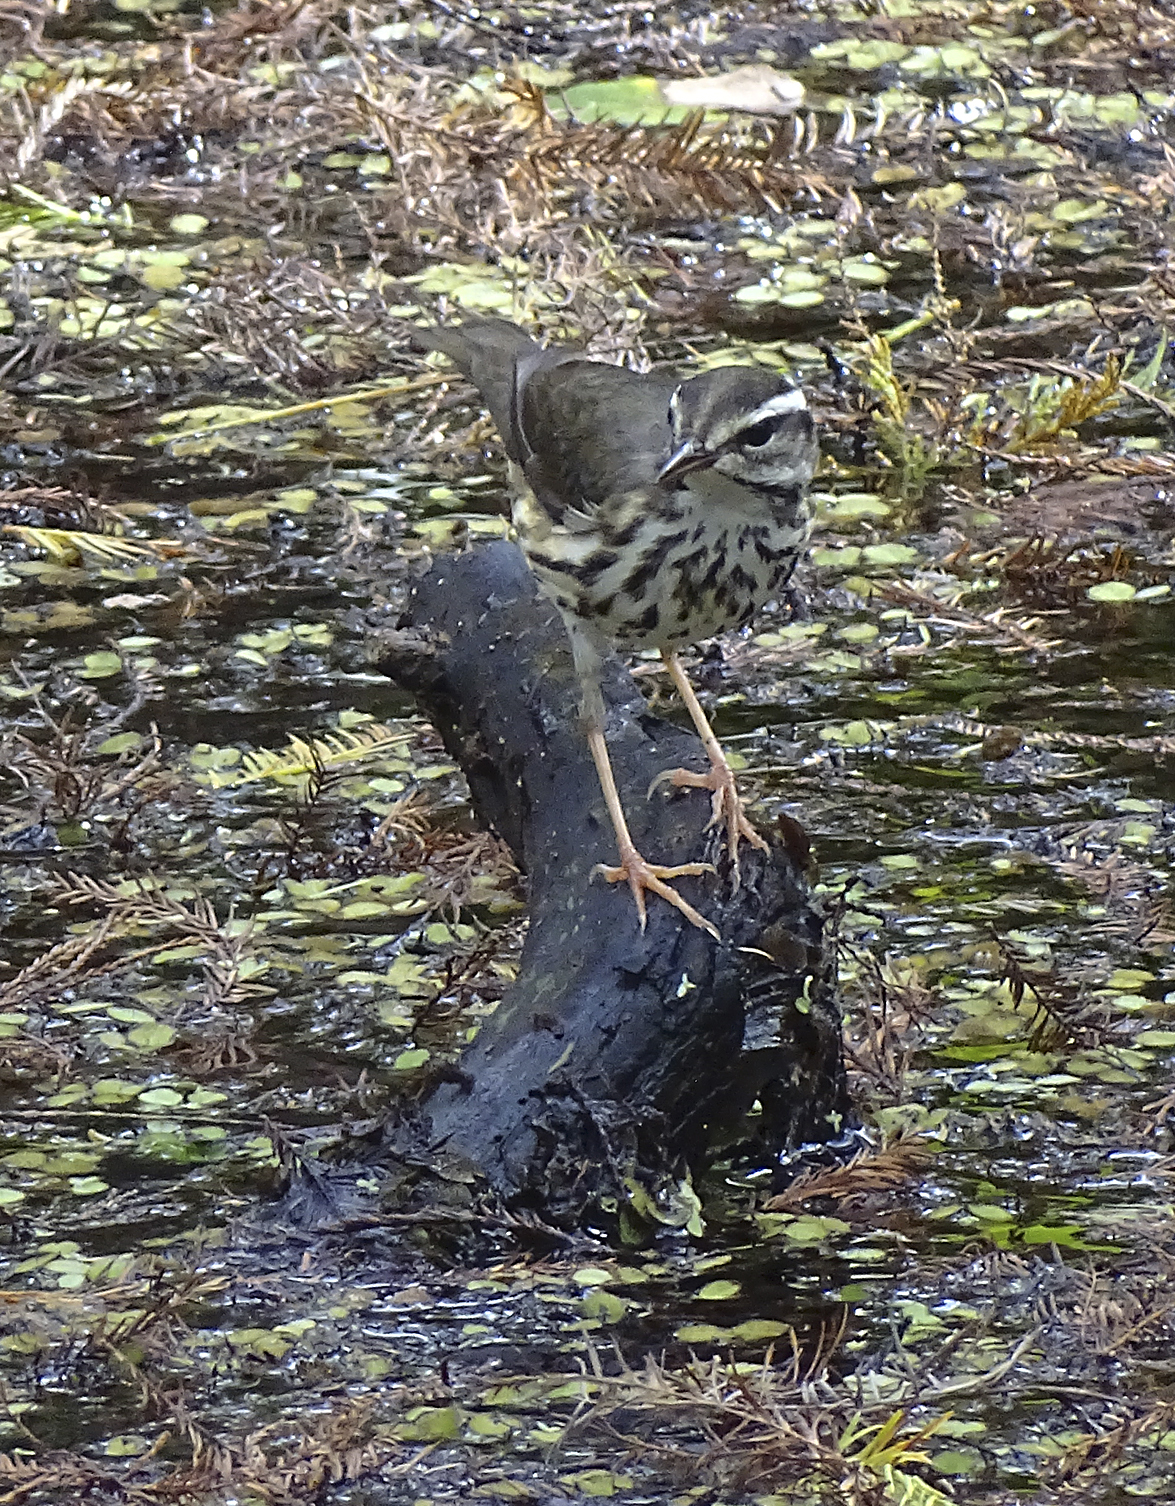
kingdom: Animalia
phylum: Chordata
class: Aves
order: Passeriformes
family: Parulidae
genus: Parkesia
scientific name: Parkesia motacilla
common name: Louisiana waterthrush
